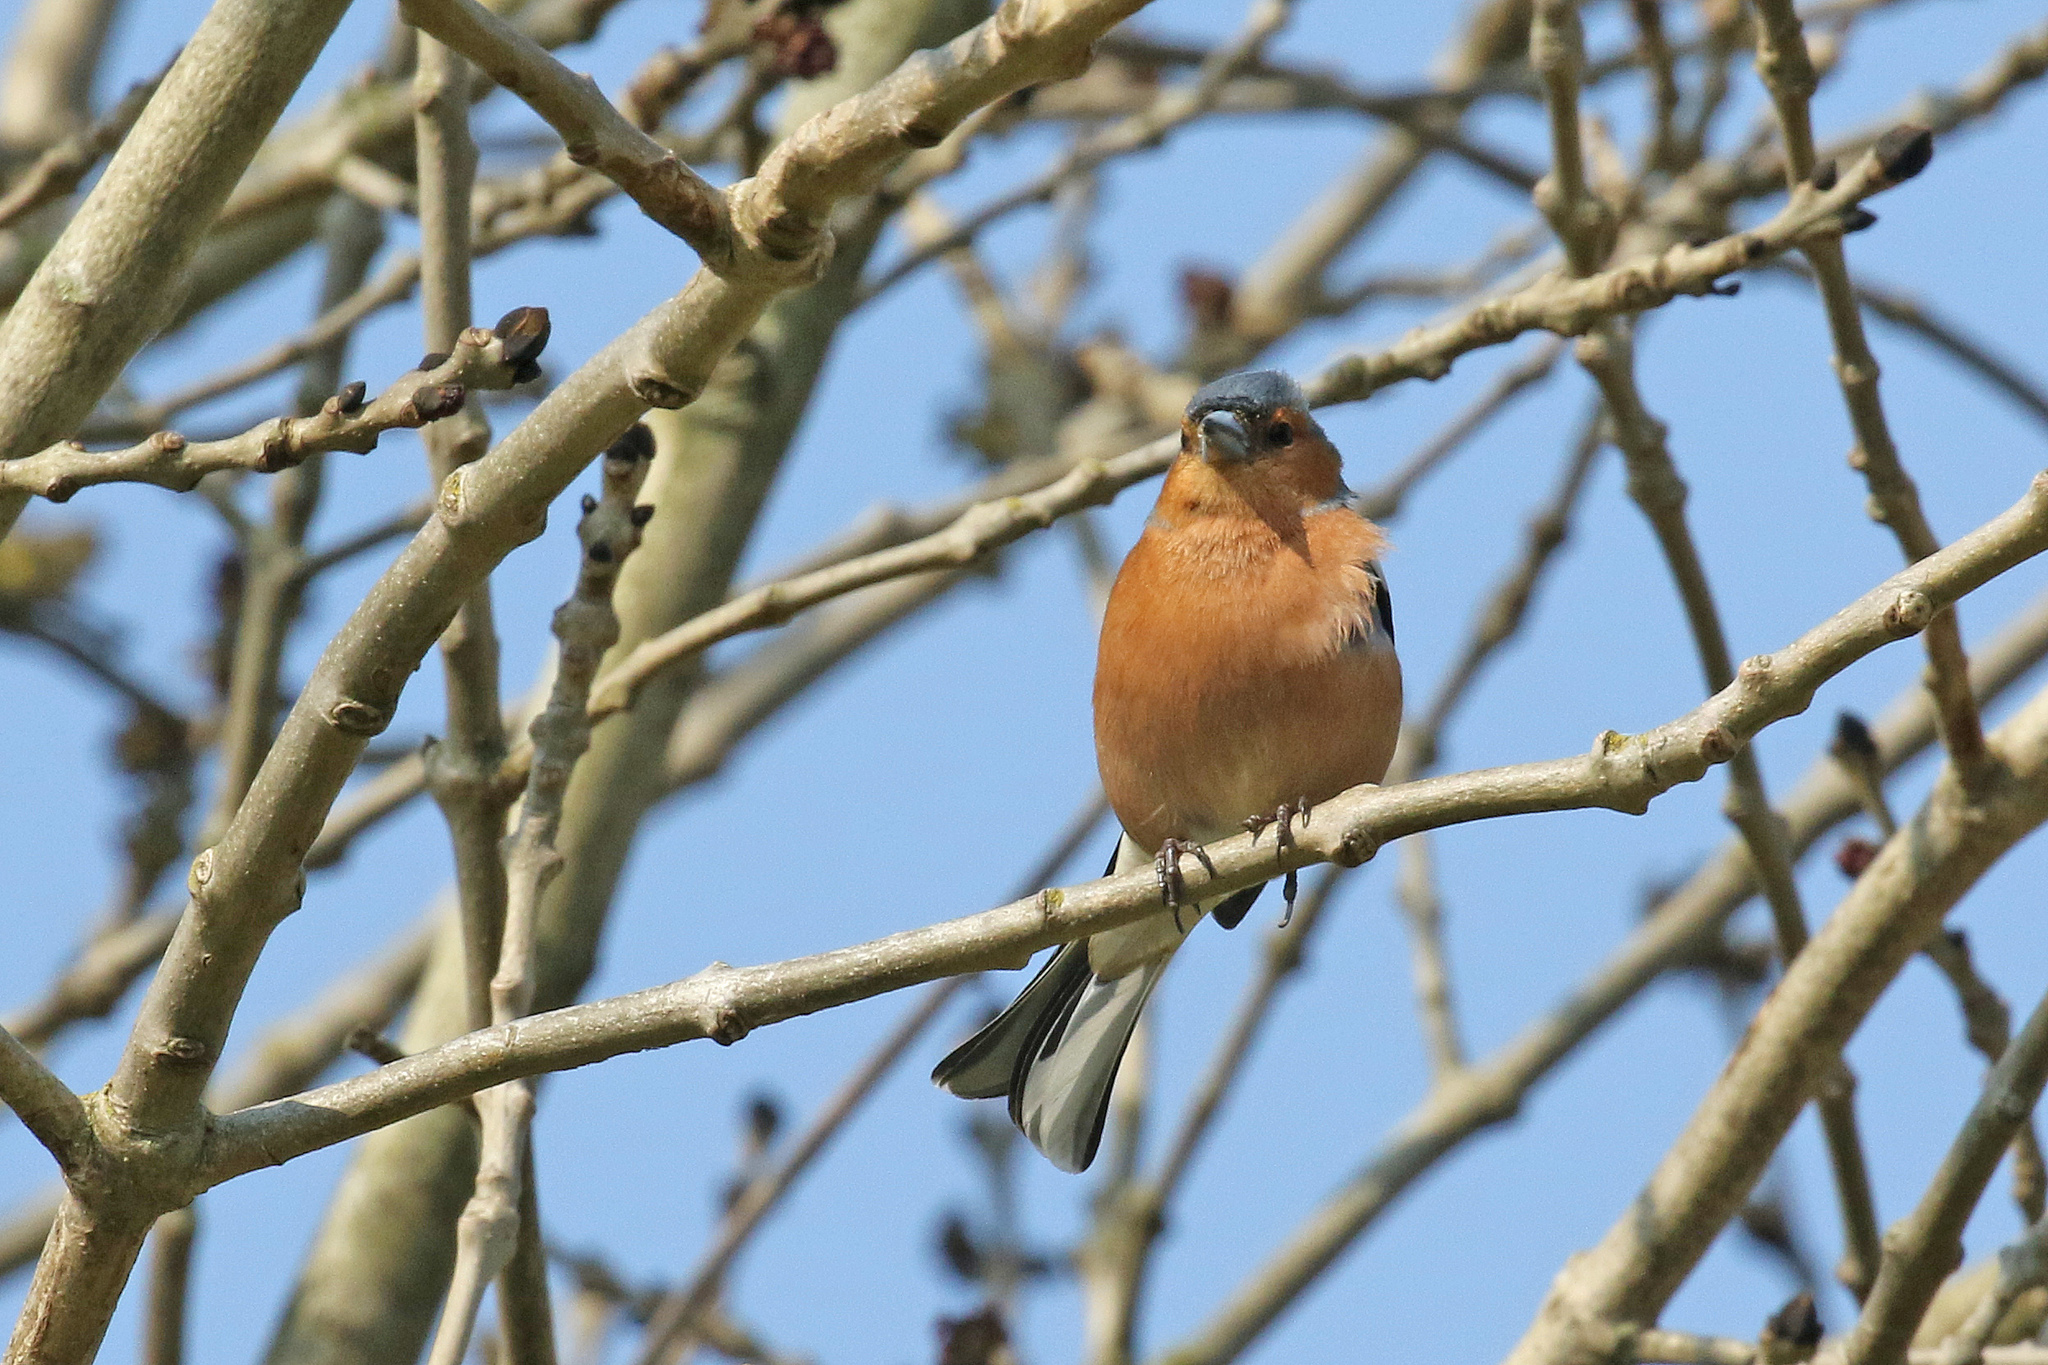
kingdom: Animalia
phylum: Chordata
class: Aves
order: Passeriformes
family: Fringillidae
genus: Fringilla
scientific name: Fringilla coelebs
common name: Common chaffinch
